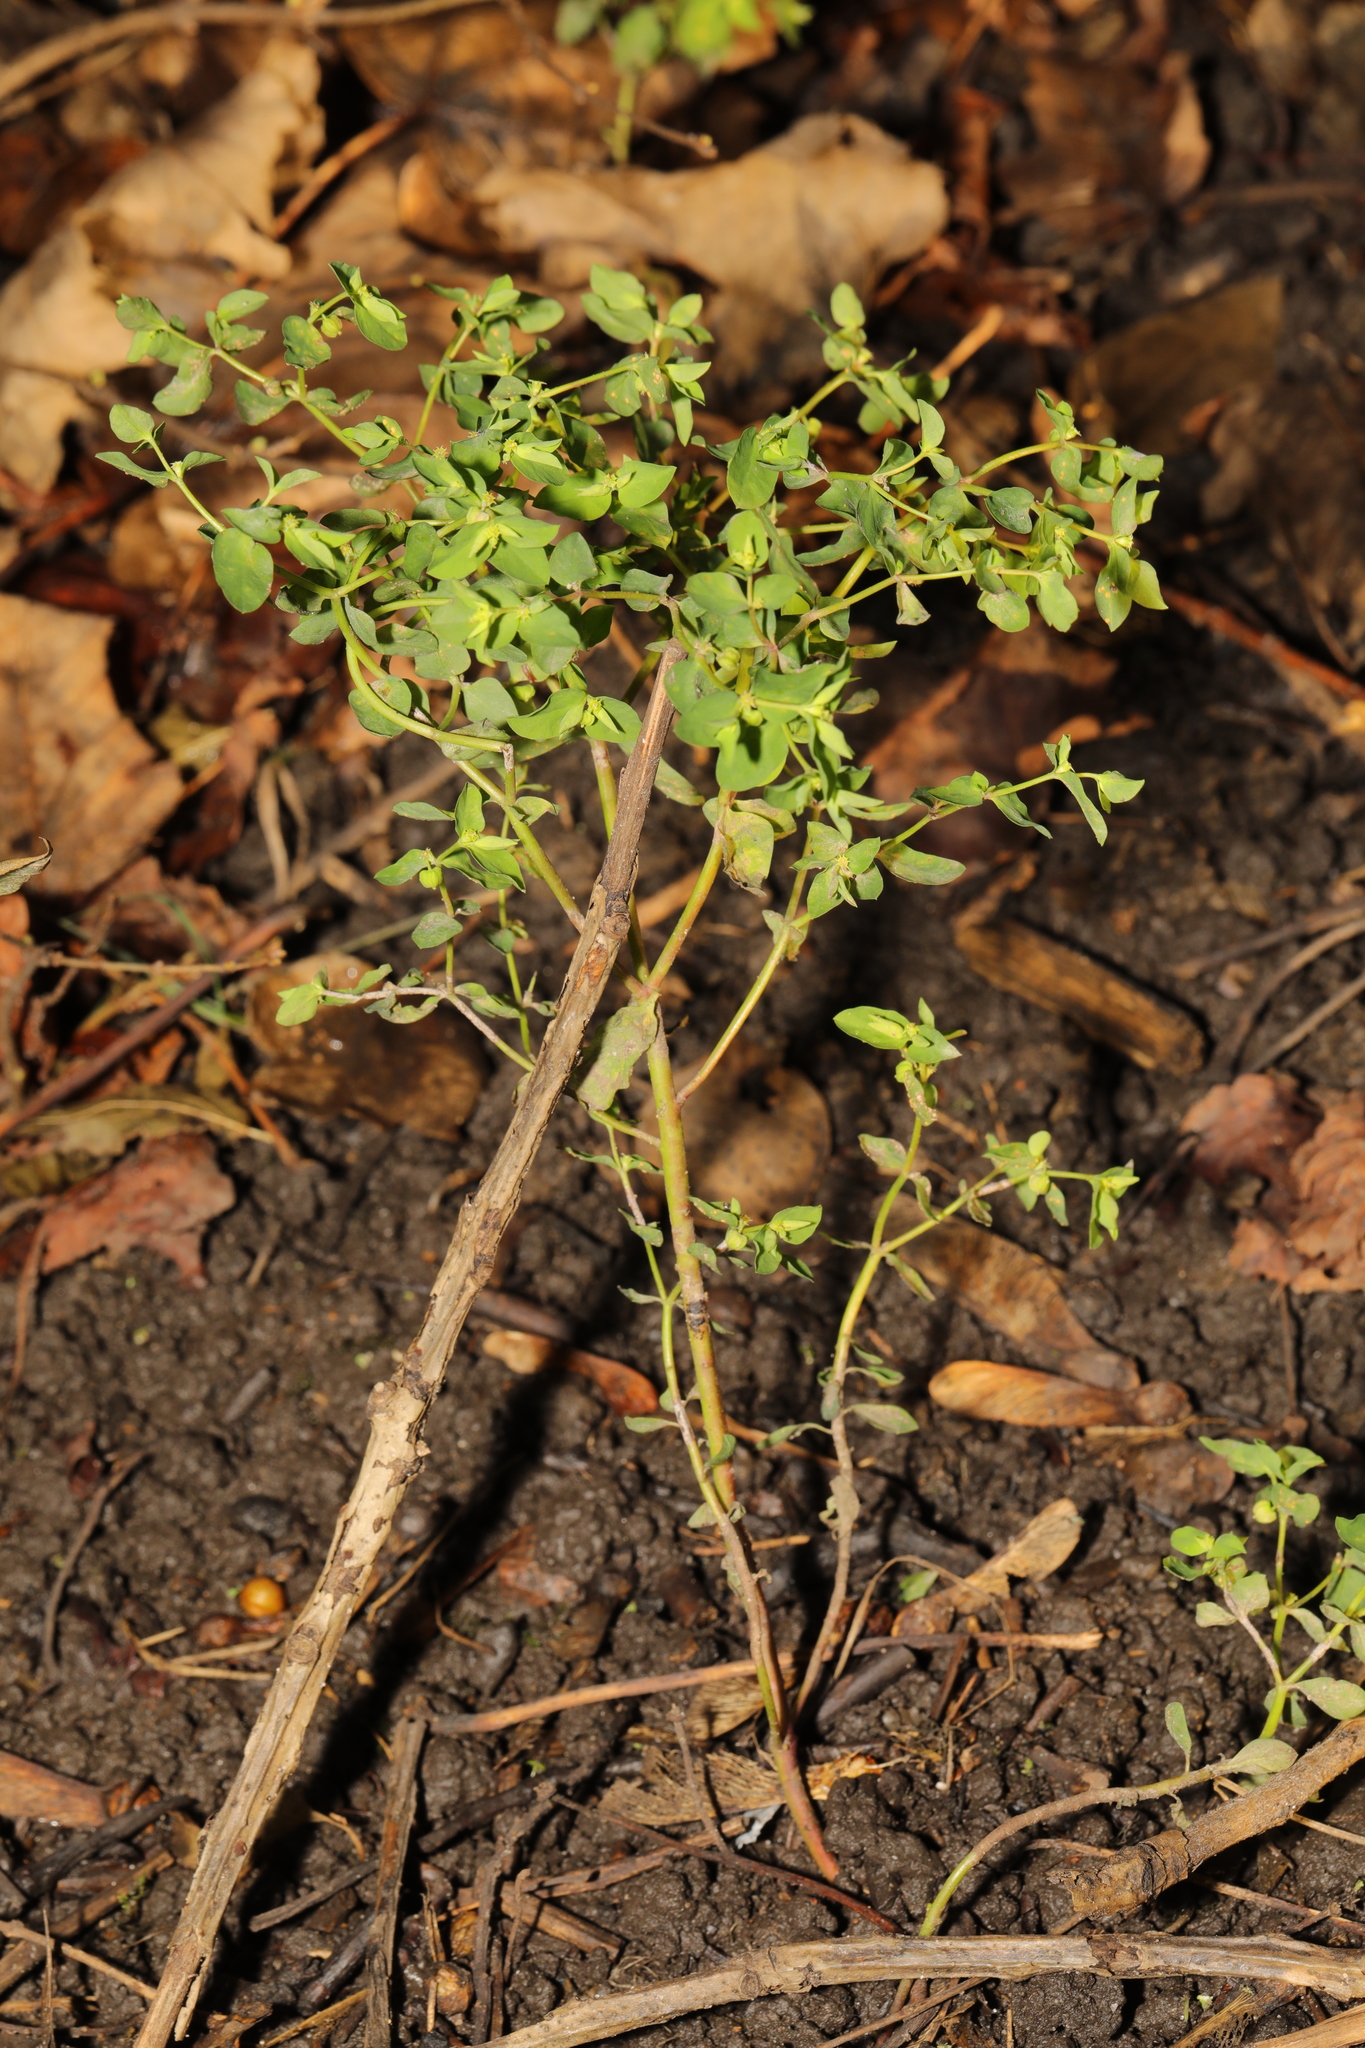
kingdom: Plantae
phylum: Tracheophyta
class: Magnoliopsida
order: Malpighiales
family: Euphorbiaceae
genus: Euphorbia
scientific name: Euphorbia peplus
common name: Petty spurge
